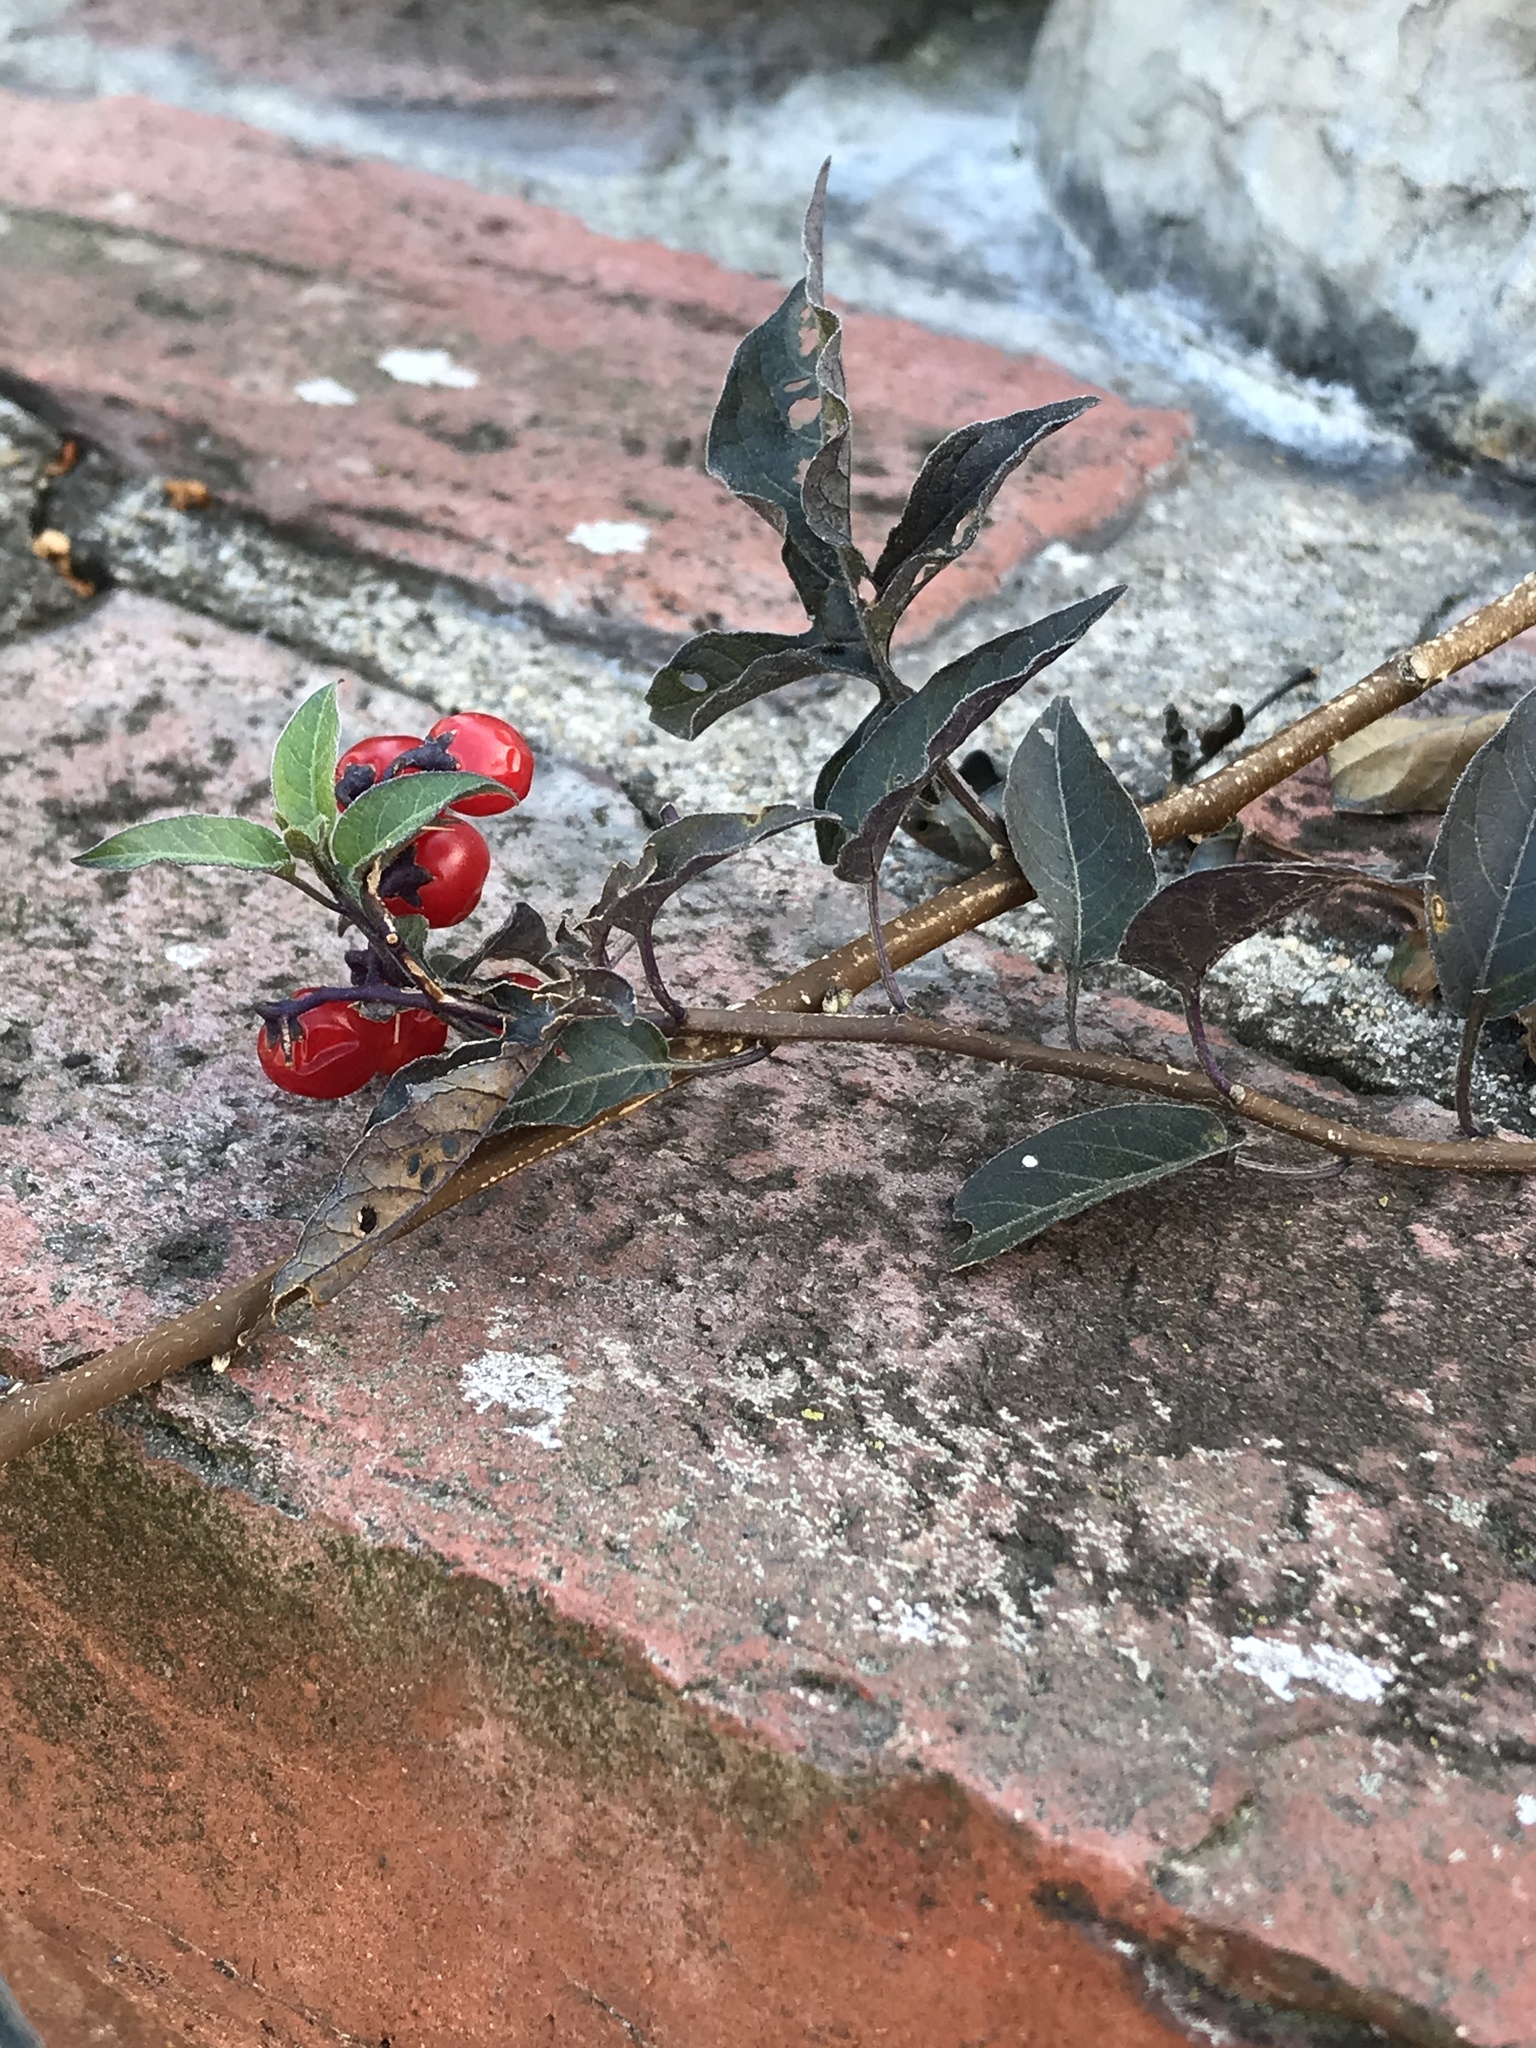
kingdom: Plantae
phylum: Tracheophyta
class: Magnoliopsida
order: Solanales
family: Solanaceae
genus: Solanum
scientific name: Solanum dulcamara
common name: Climbing nightshade
